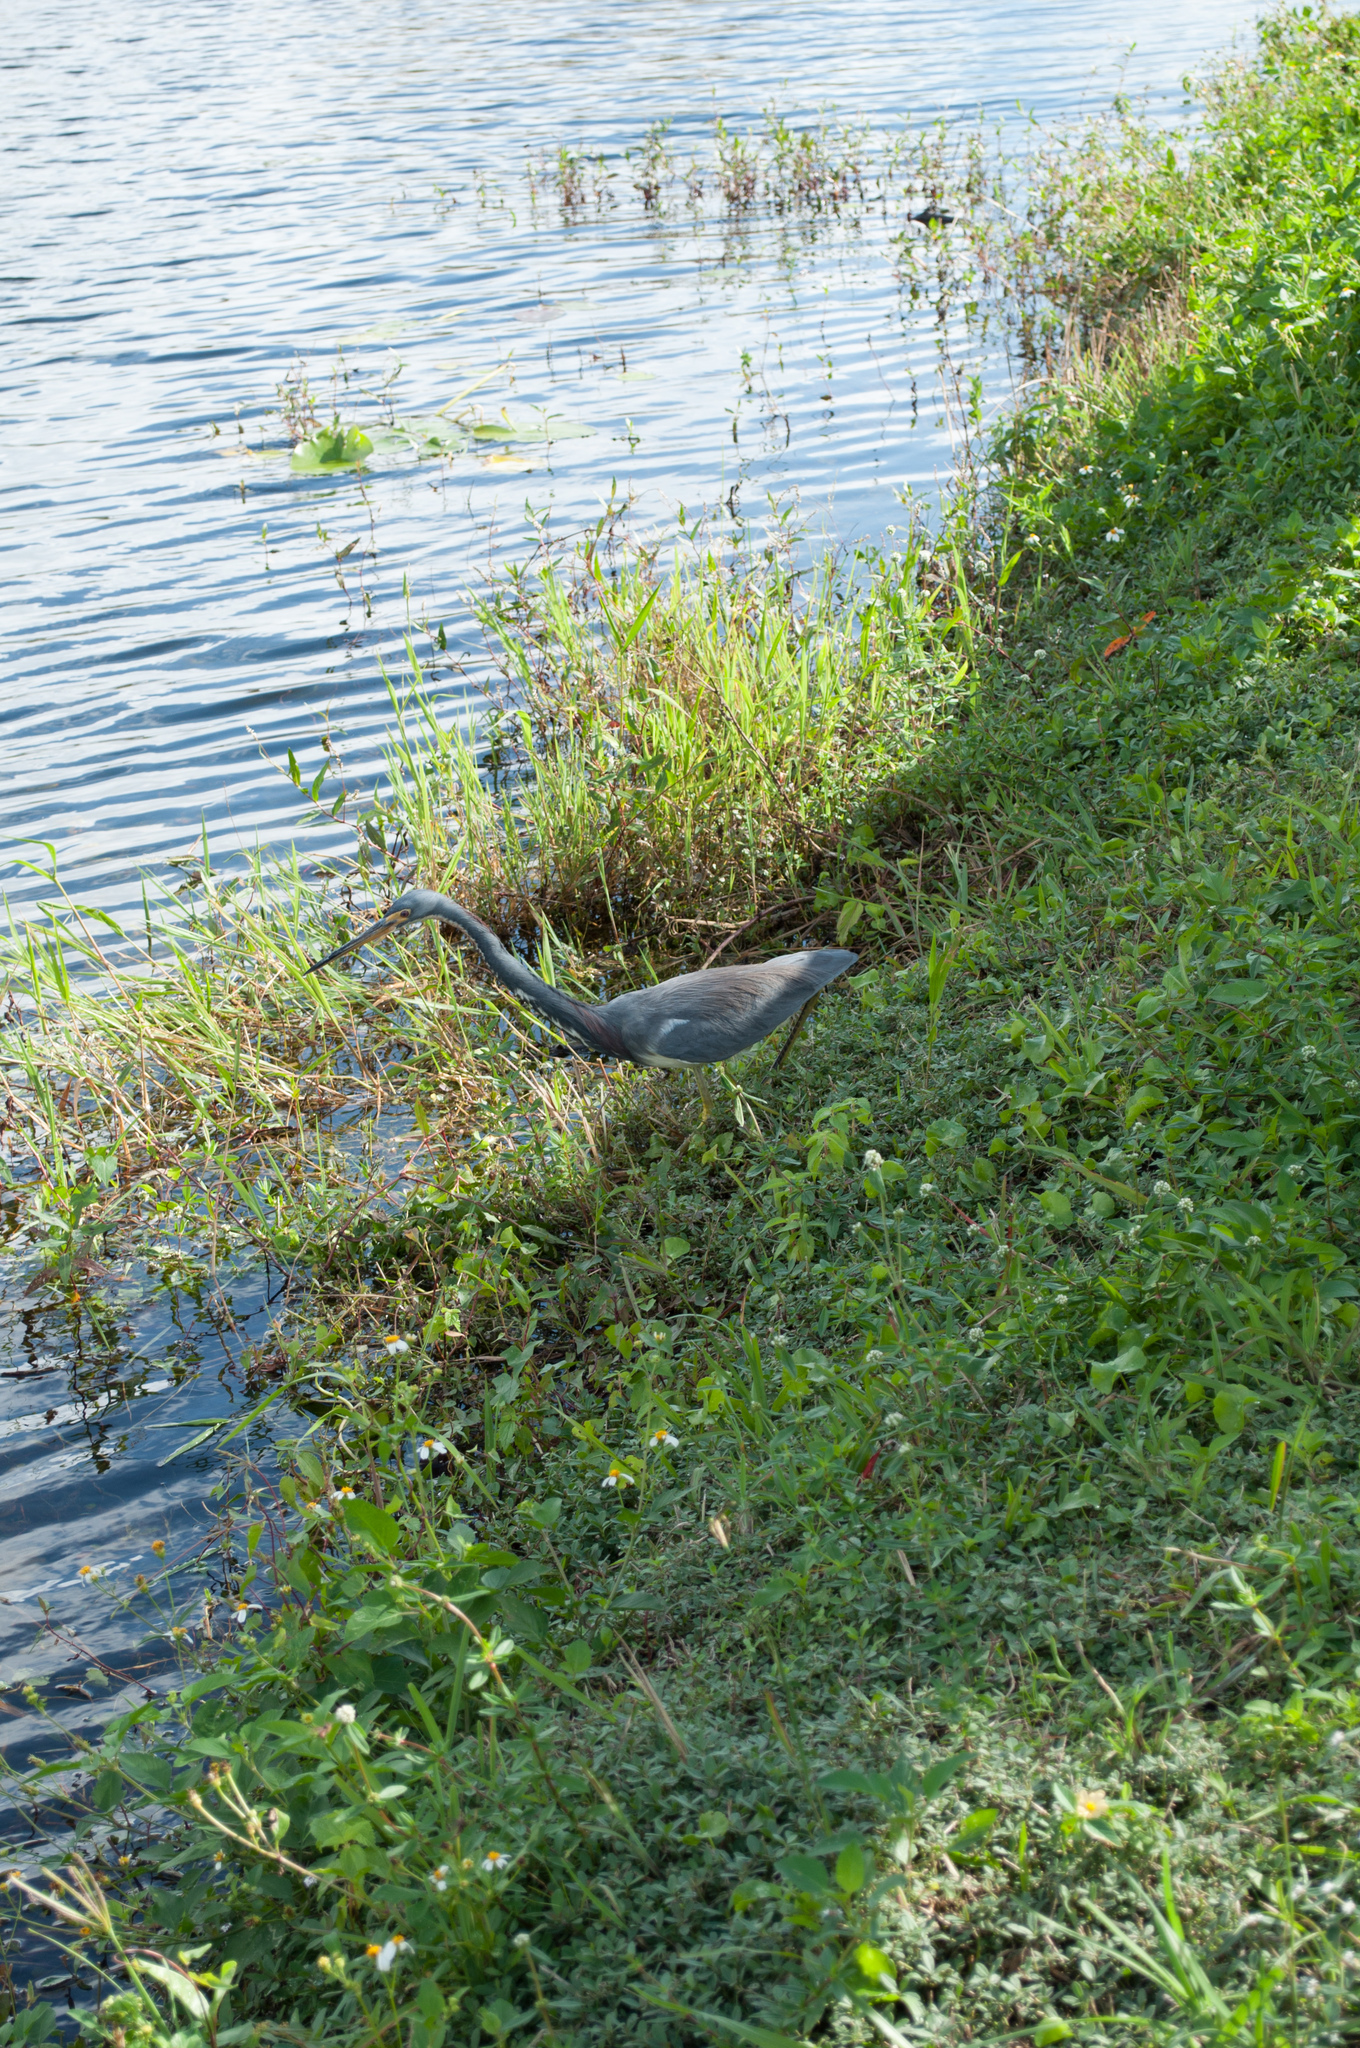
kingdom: Animalia
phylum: Chordata
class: Aves
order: Pelecaniformes
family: Ardeidae
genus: Egretta
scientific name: Egretta tricolor
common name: Tricolored heron
